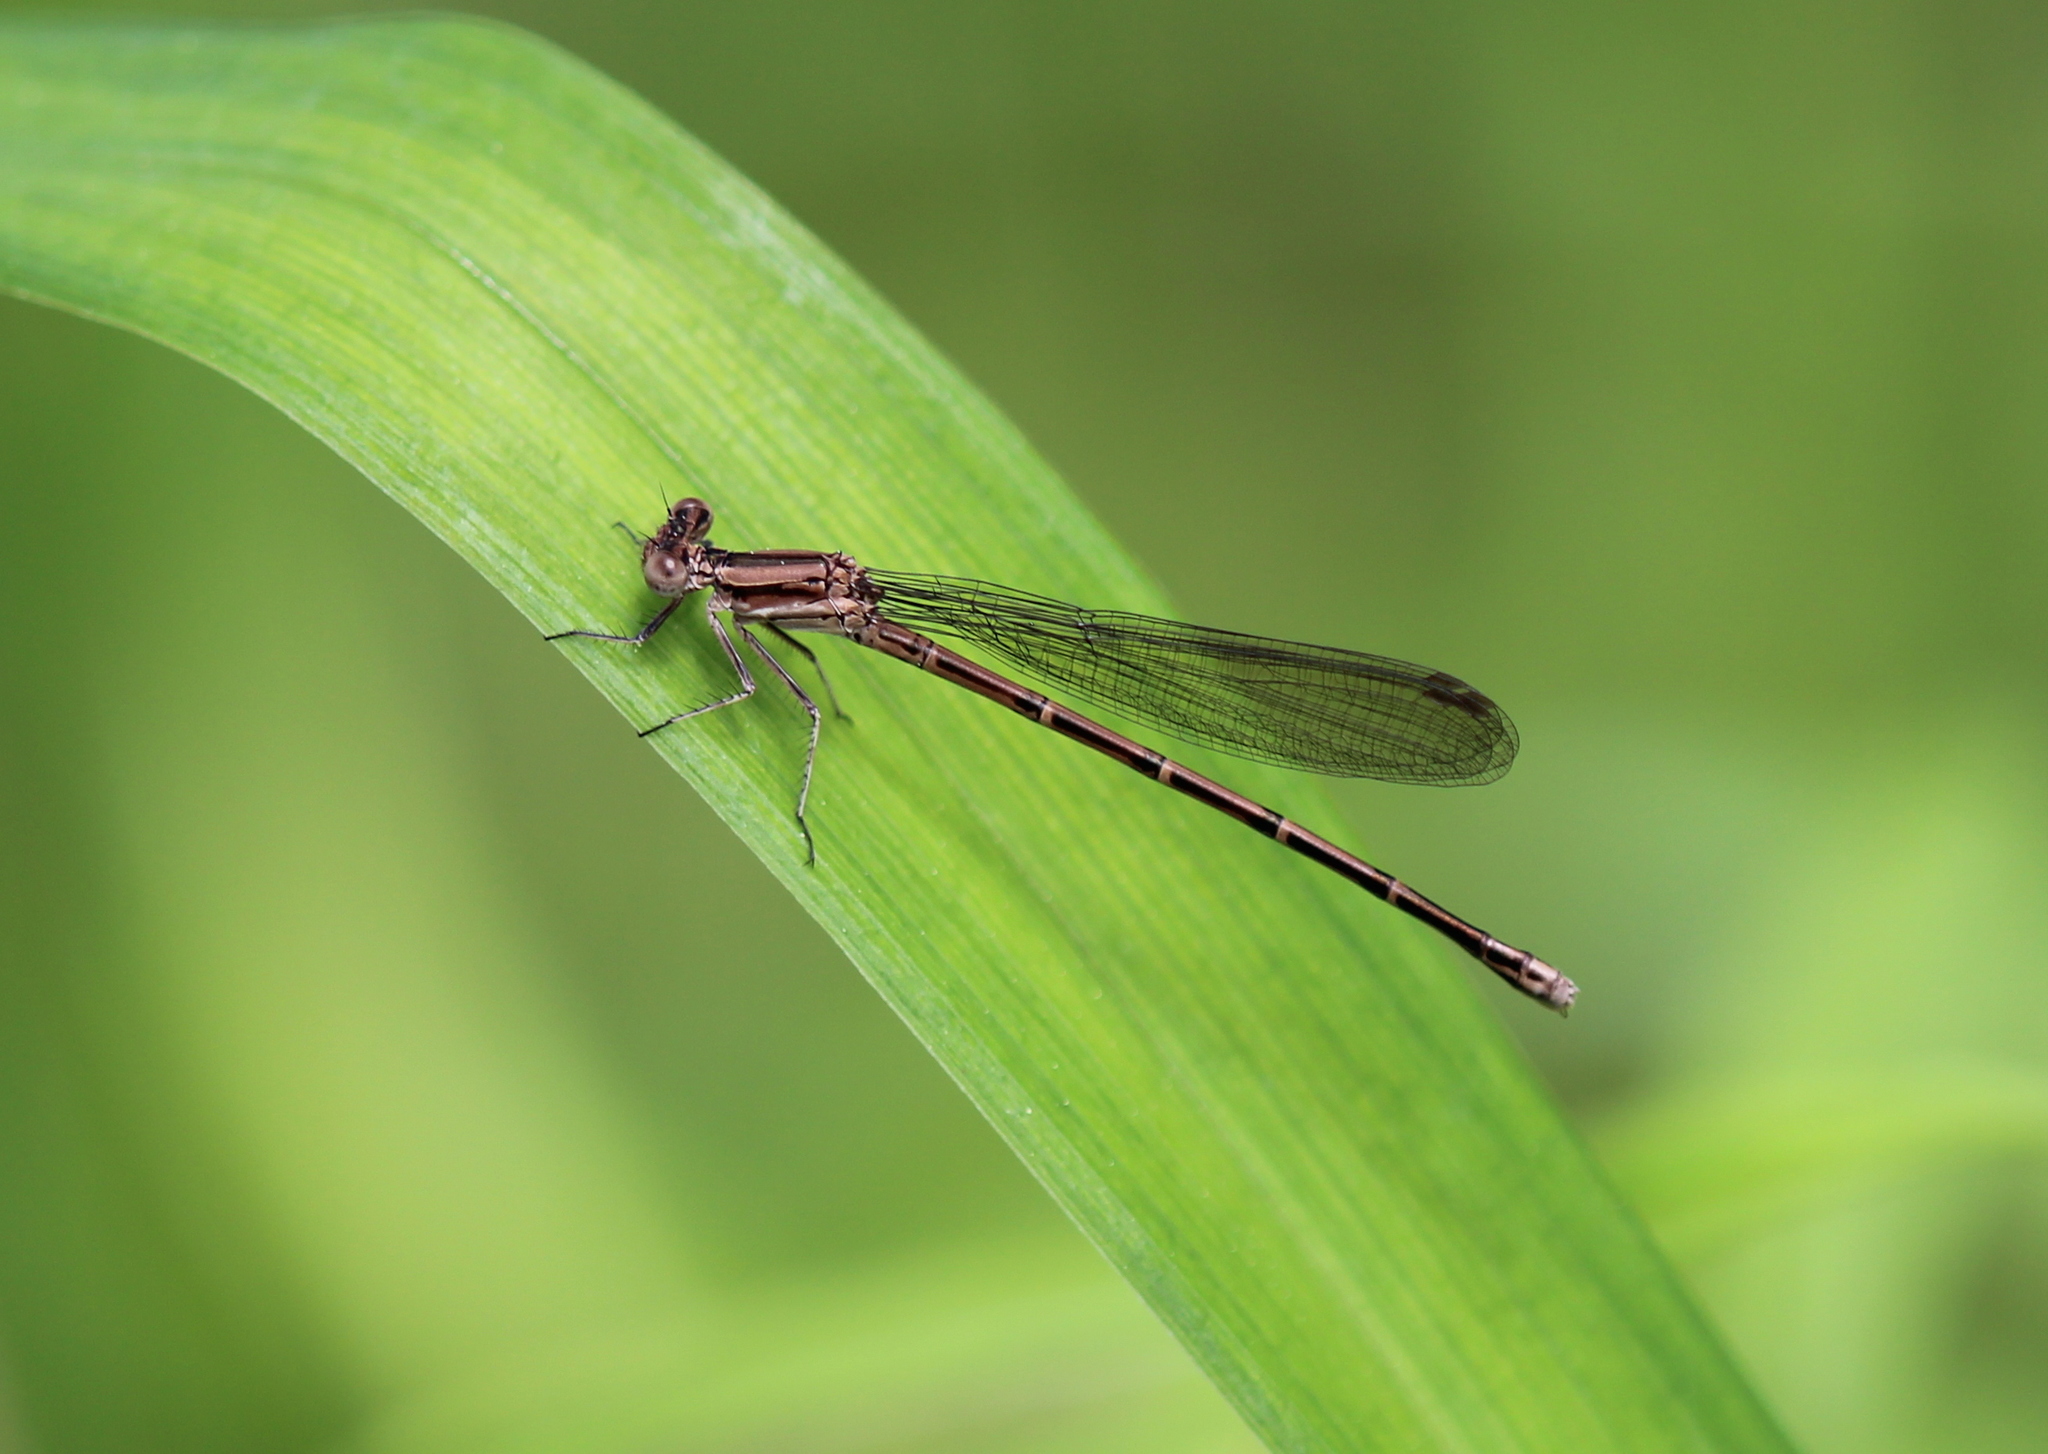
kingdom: Animalia
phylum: Arthropoda
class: Insecta
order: Odonata
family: Coenagrionidae
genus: Argia
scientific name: Argia fumipennis
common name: Variable dancer
